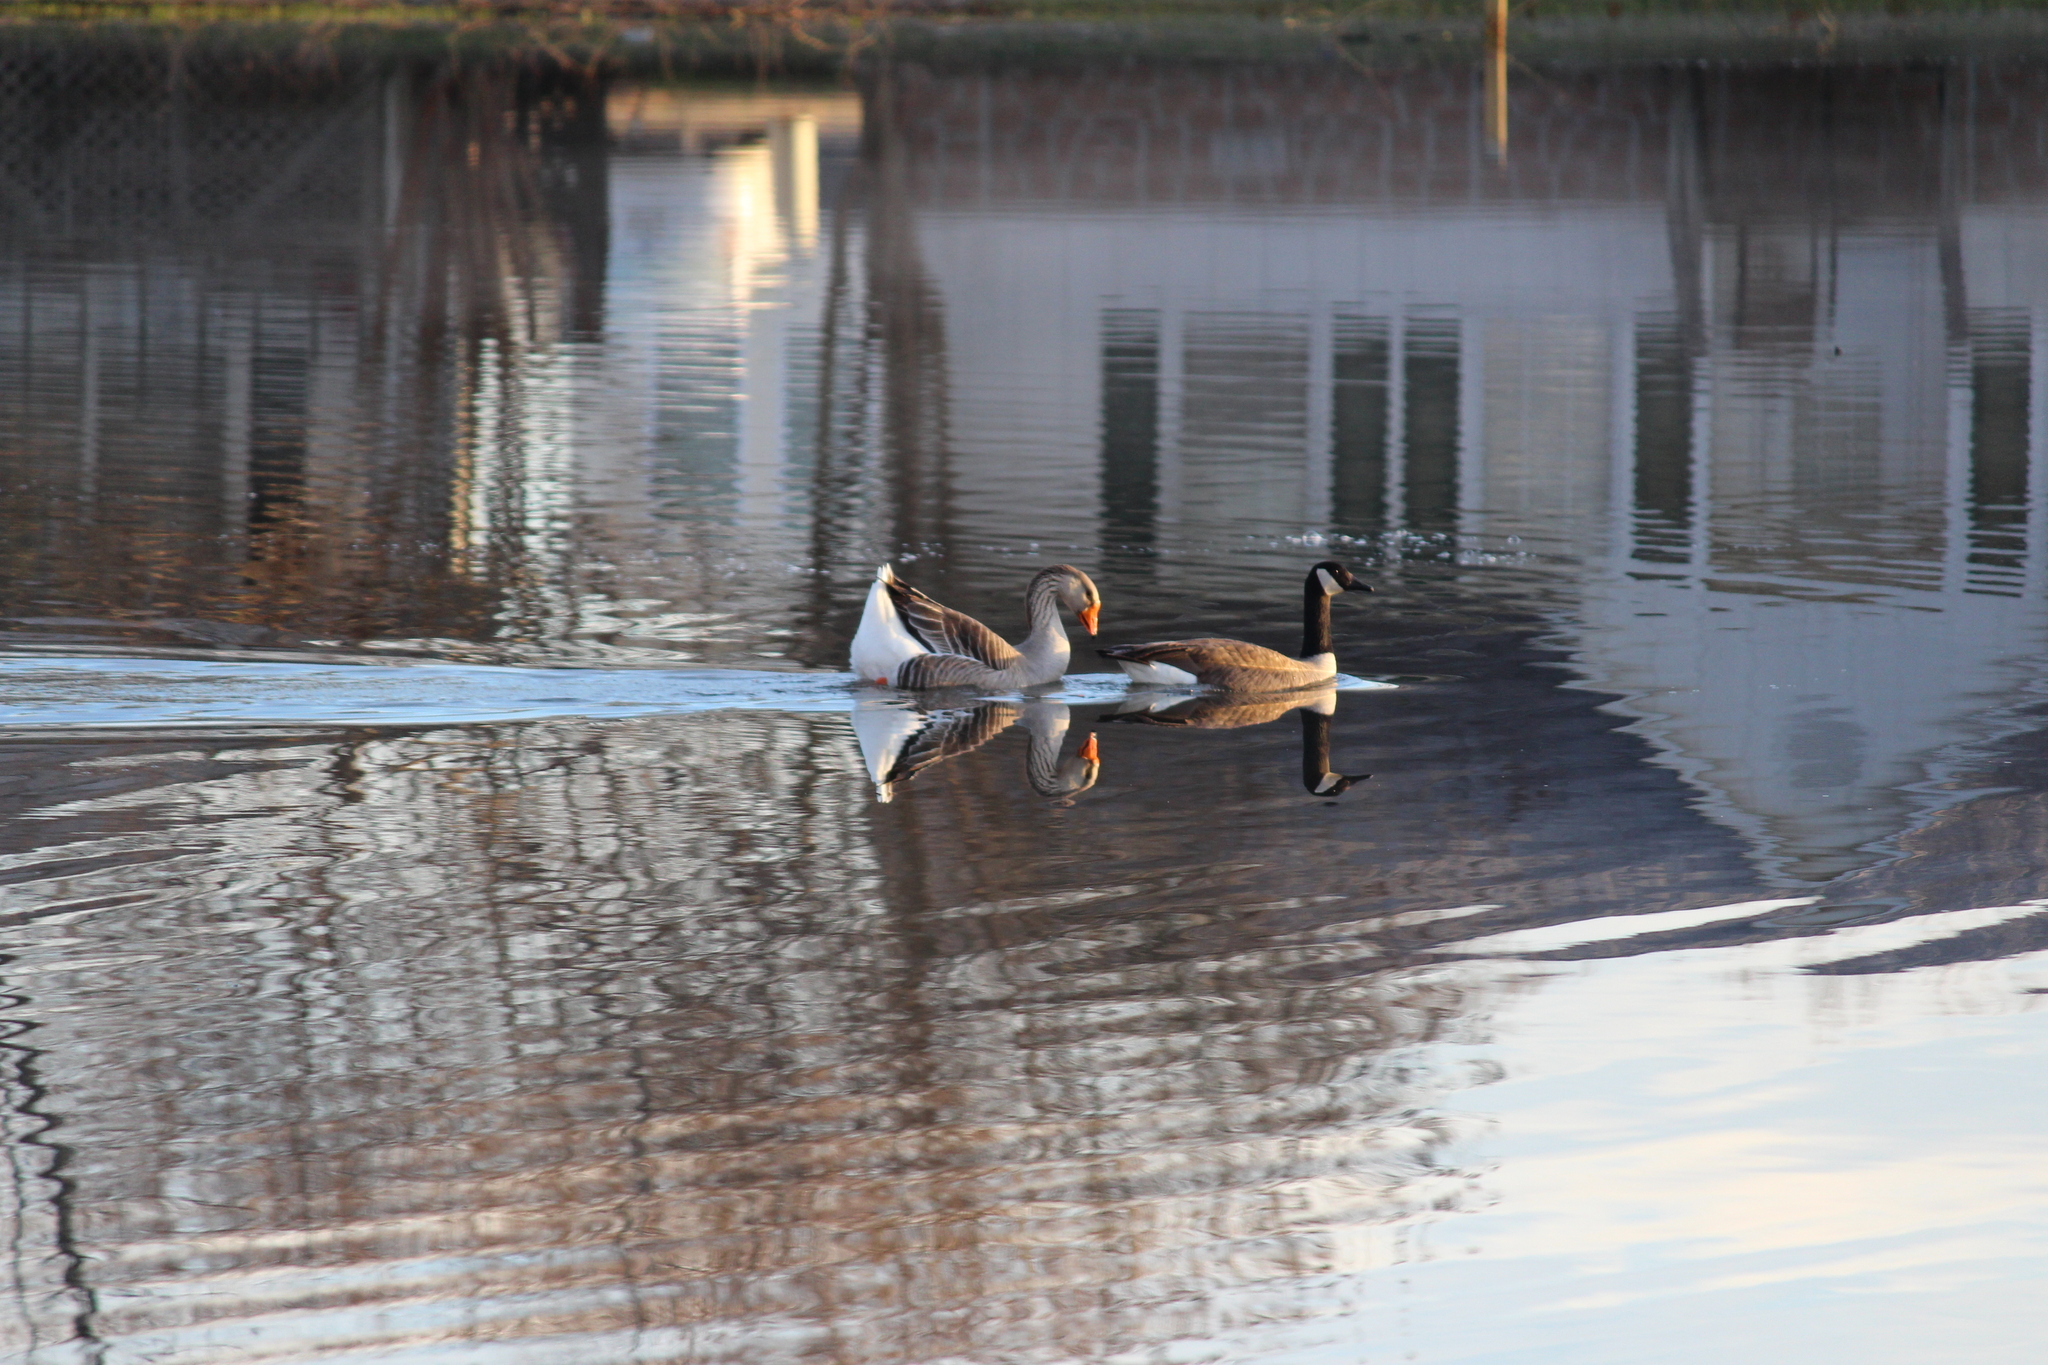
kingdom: Animalia
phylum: Chordata
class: Aves
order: Anseriformes
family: Anatidae
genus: Anser
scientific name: Anser
